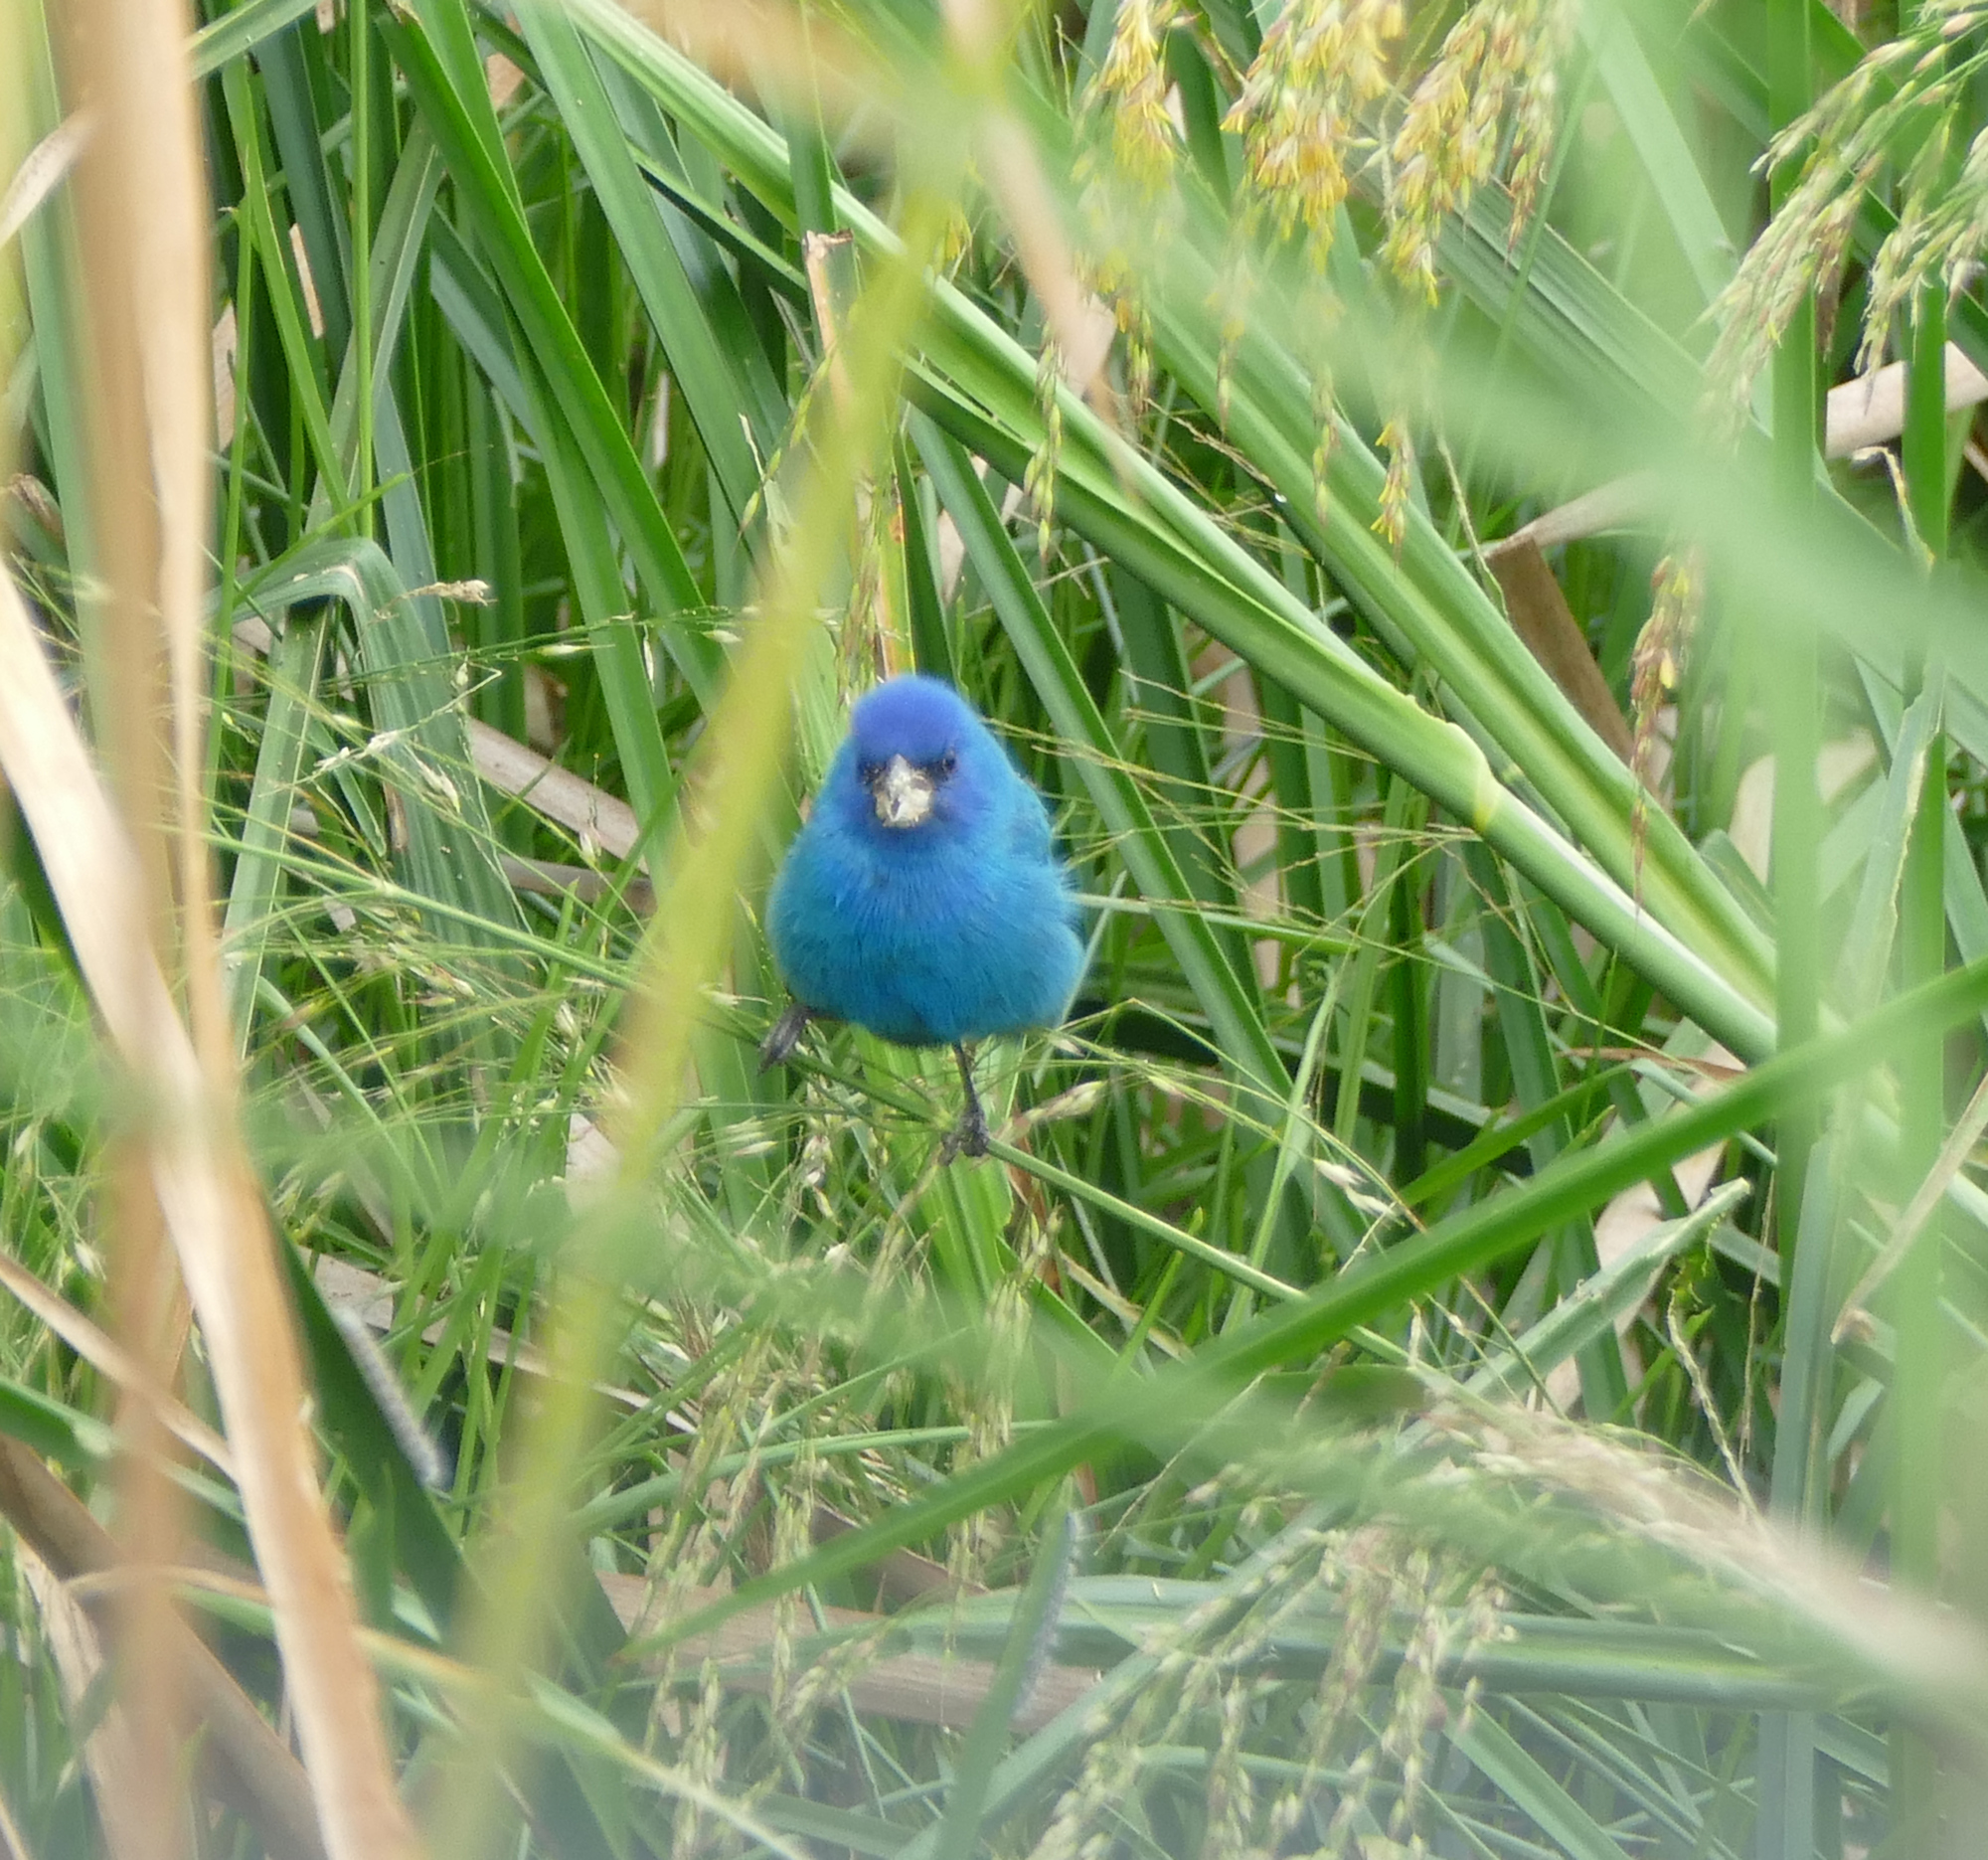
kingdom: Animalia
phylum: Chordata
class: Aves
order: Passeriformes
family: Cardinalidae
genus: Passerina
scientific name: Passerina cyanea
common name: Indigo bunting
